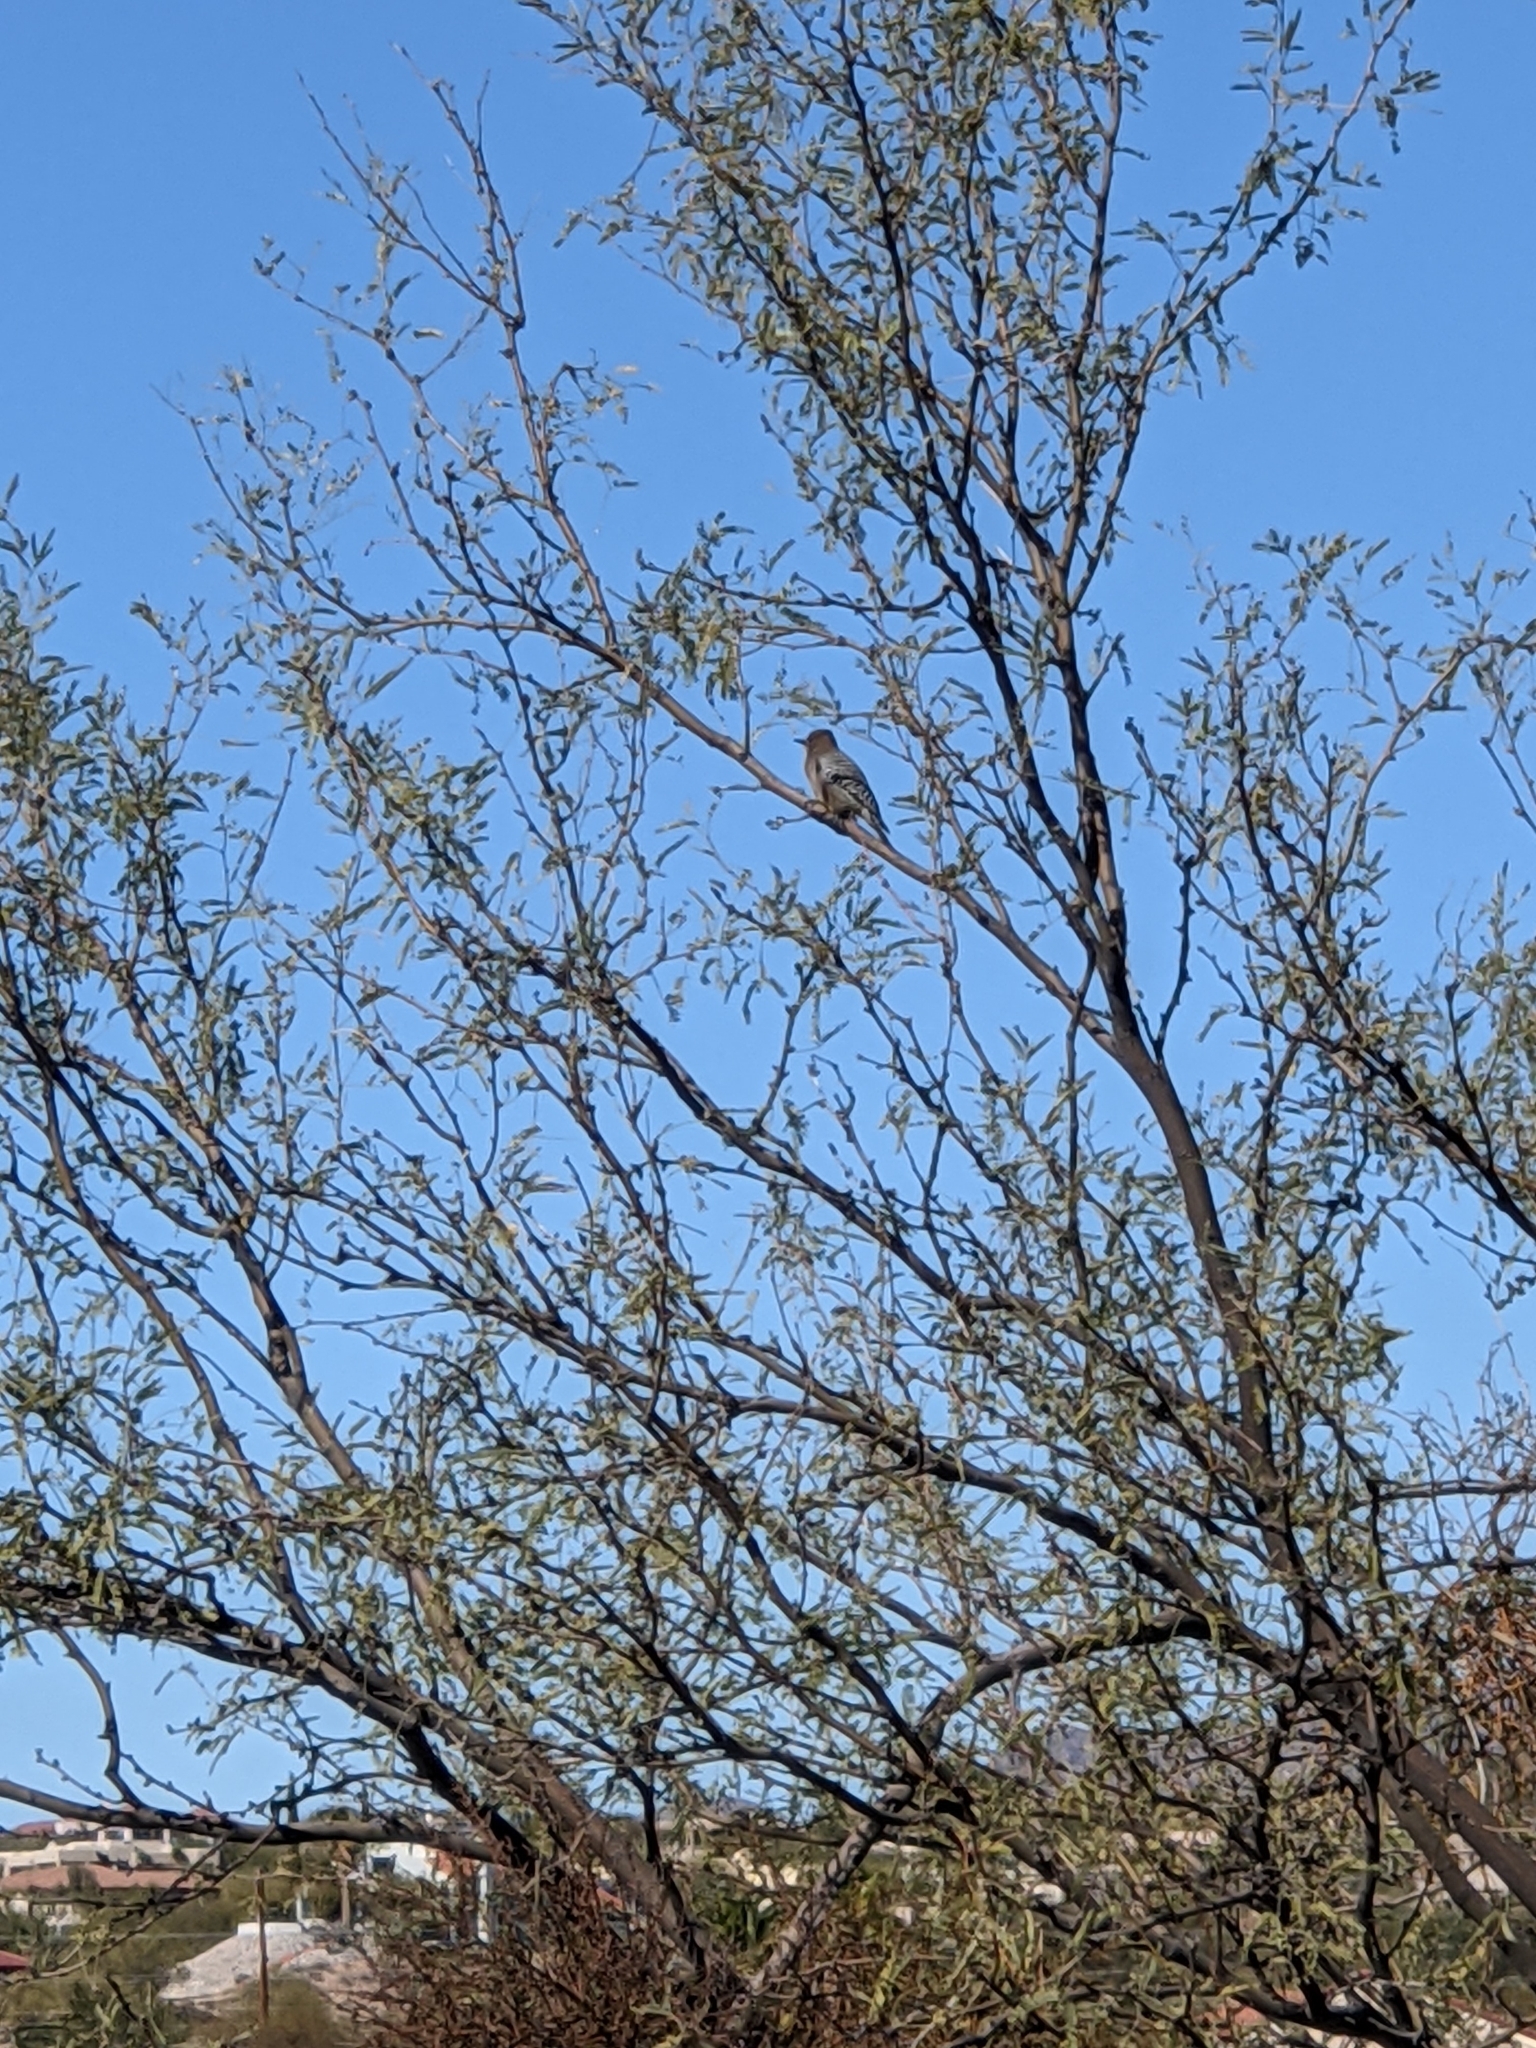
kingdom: Animalia
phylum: Chordata
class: Aves
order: Piciformes
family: Picidae
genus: Melanerpes
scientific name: Melanerpes uropygialis
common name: Gila woodpecker
